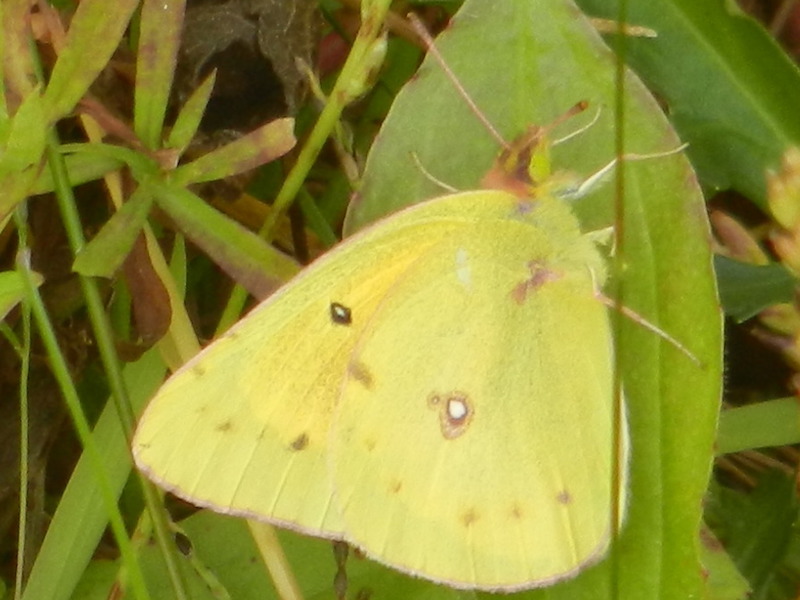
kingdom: Animalia
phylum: Arthropoda
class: Insecta
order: Lepidoptera
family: Pieridae
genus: Colias
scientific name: Colias eurytheme
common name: Alfalfa butterfly
